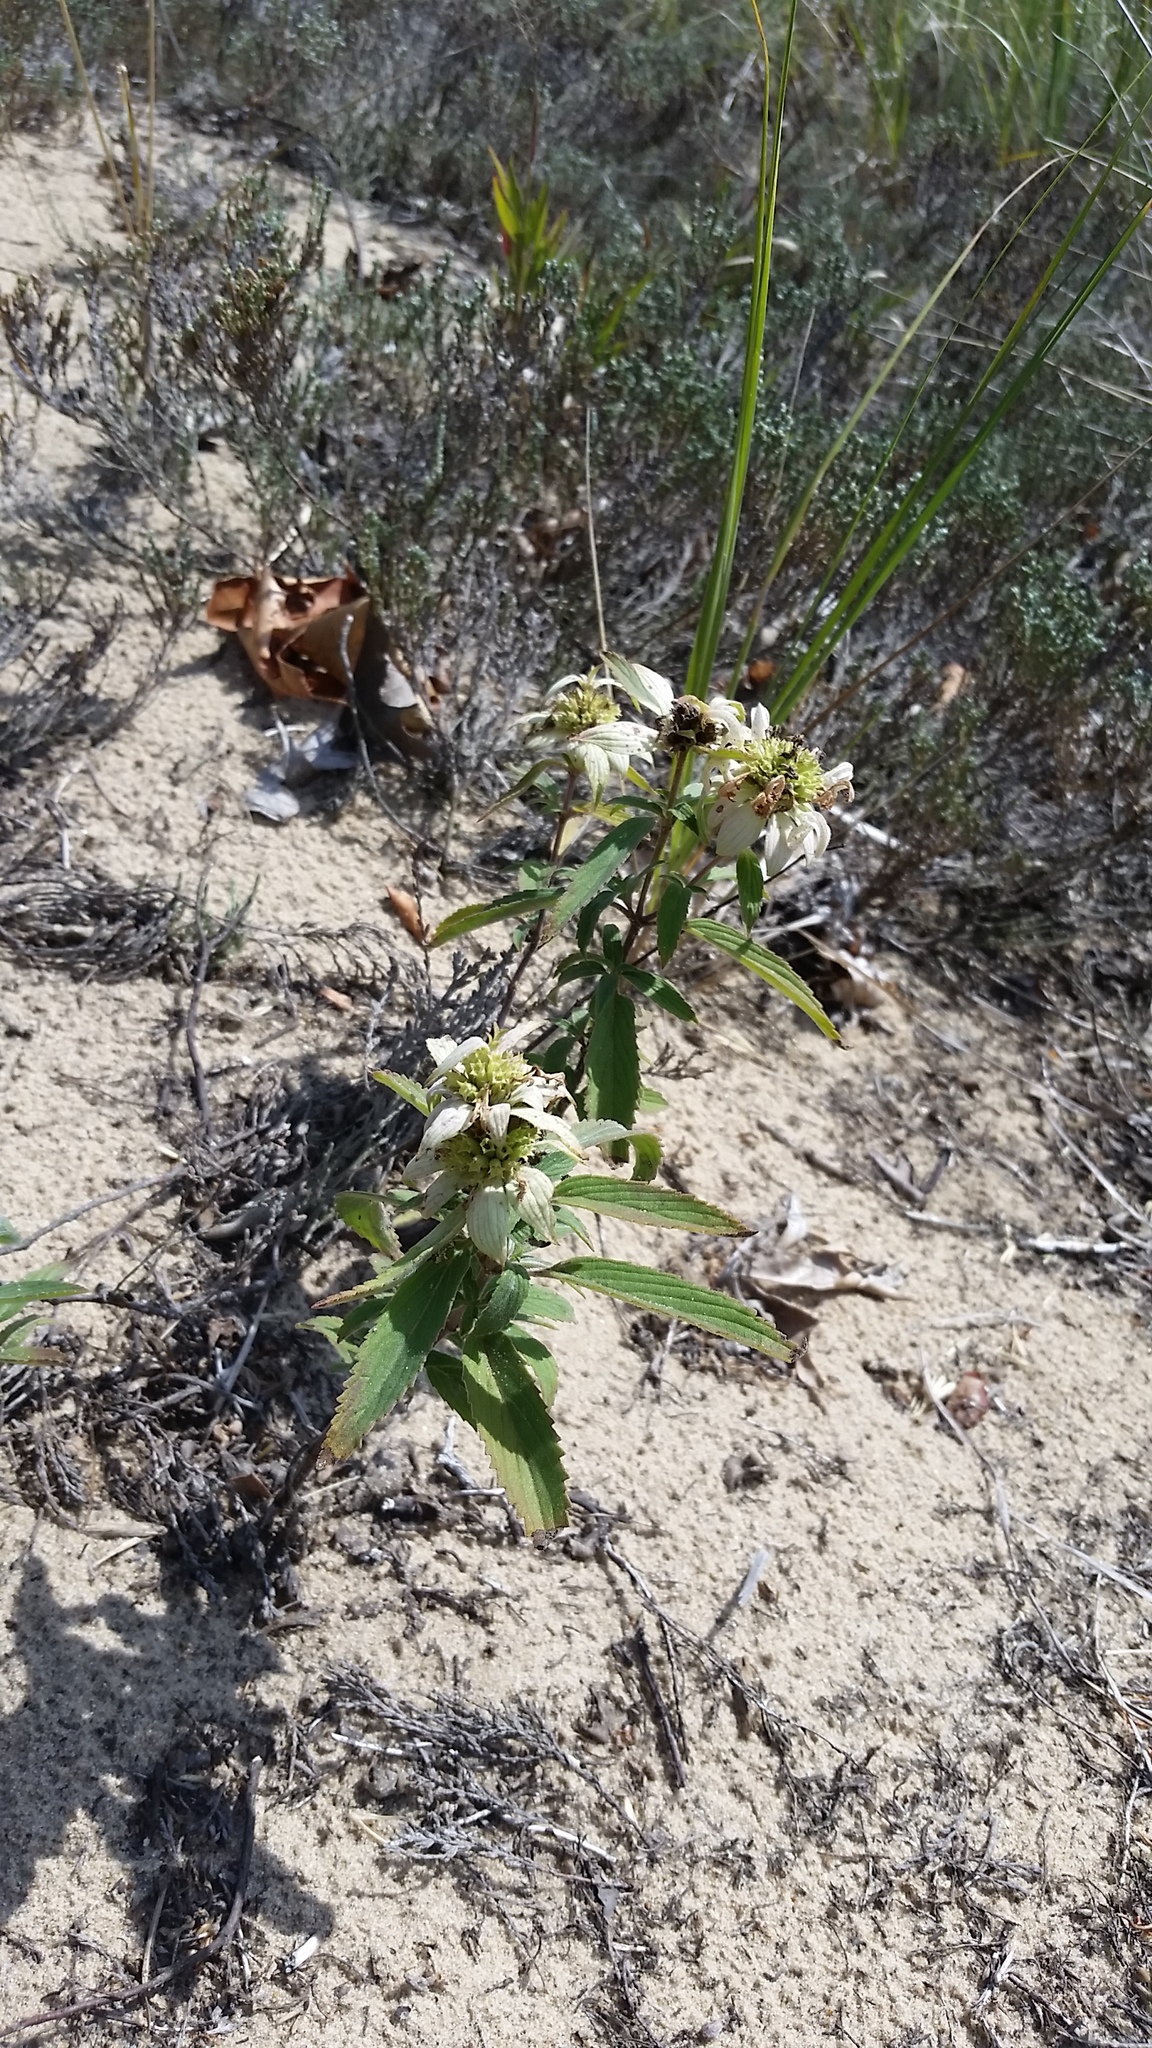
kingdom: Plantae
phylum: Tracheophyta
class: Magnoliopsida
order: Lamiales
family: Lamiaceae
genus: Monarda
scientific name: Monarda punctata
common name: Dotted monarda
